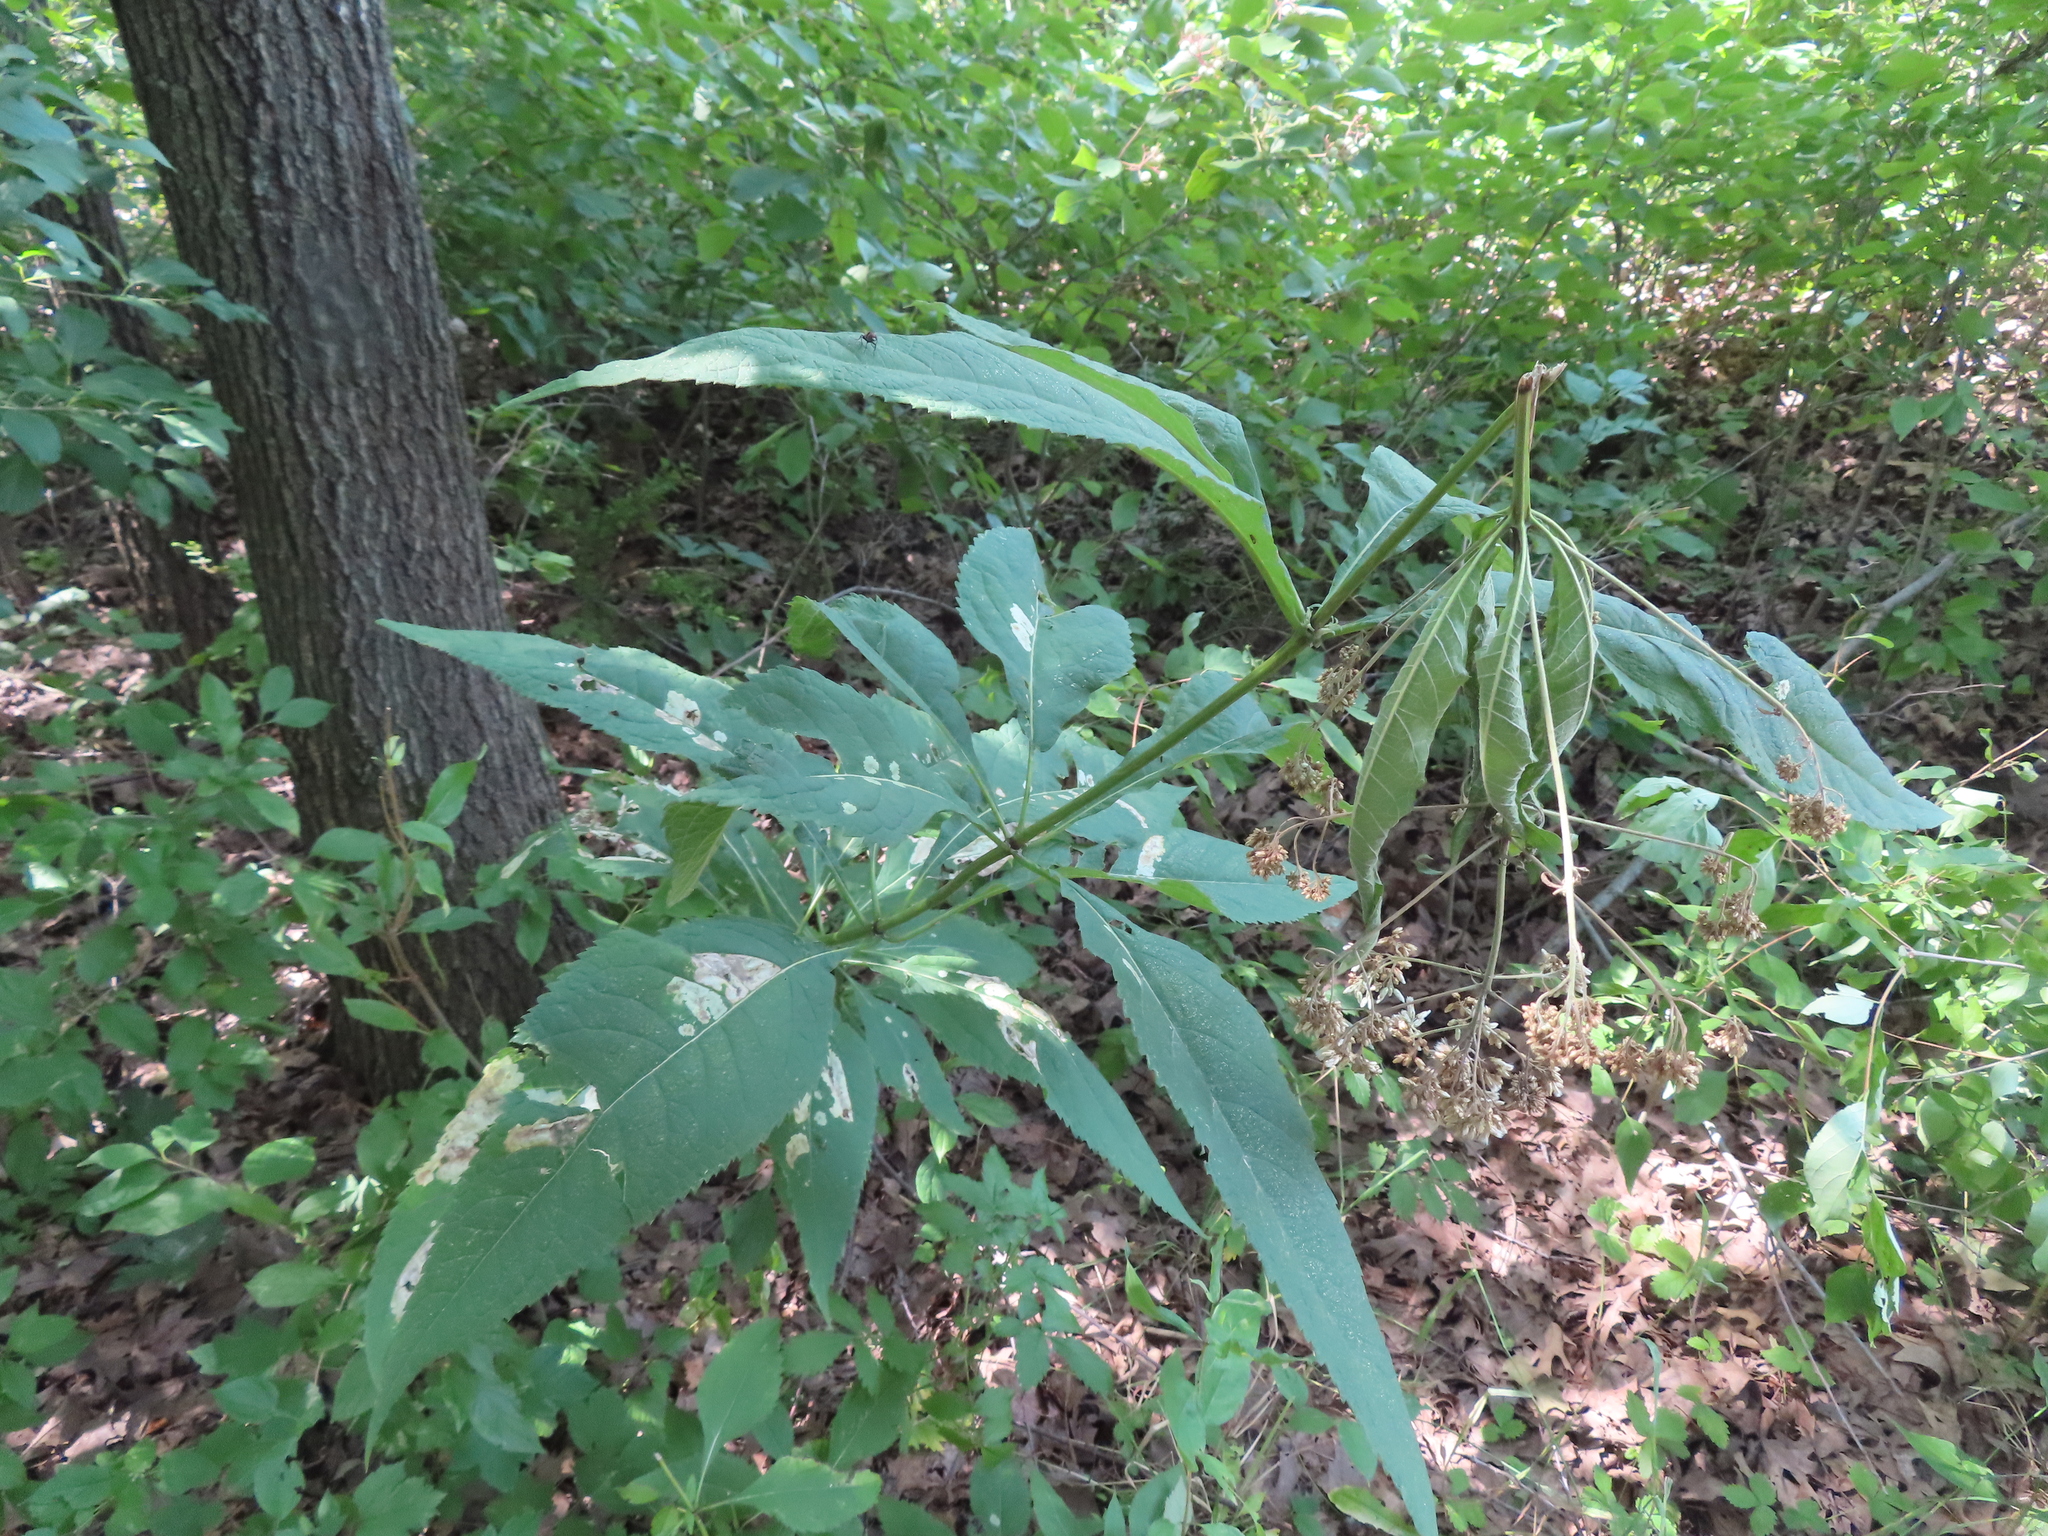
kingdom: Plantae
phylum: Tracheophyta
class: Magnoliopsida
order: Asterales
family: Asteraceae
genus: Eutrochium
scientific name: Eutrochium purpureum
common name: Gravelroot
